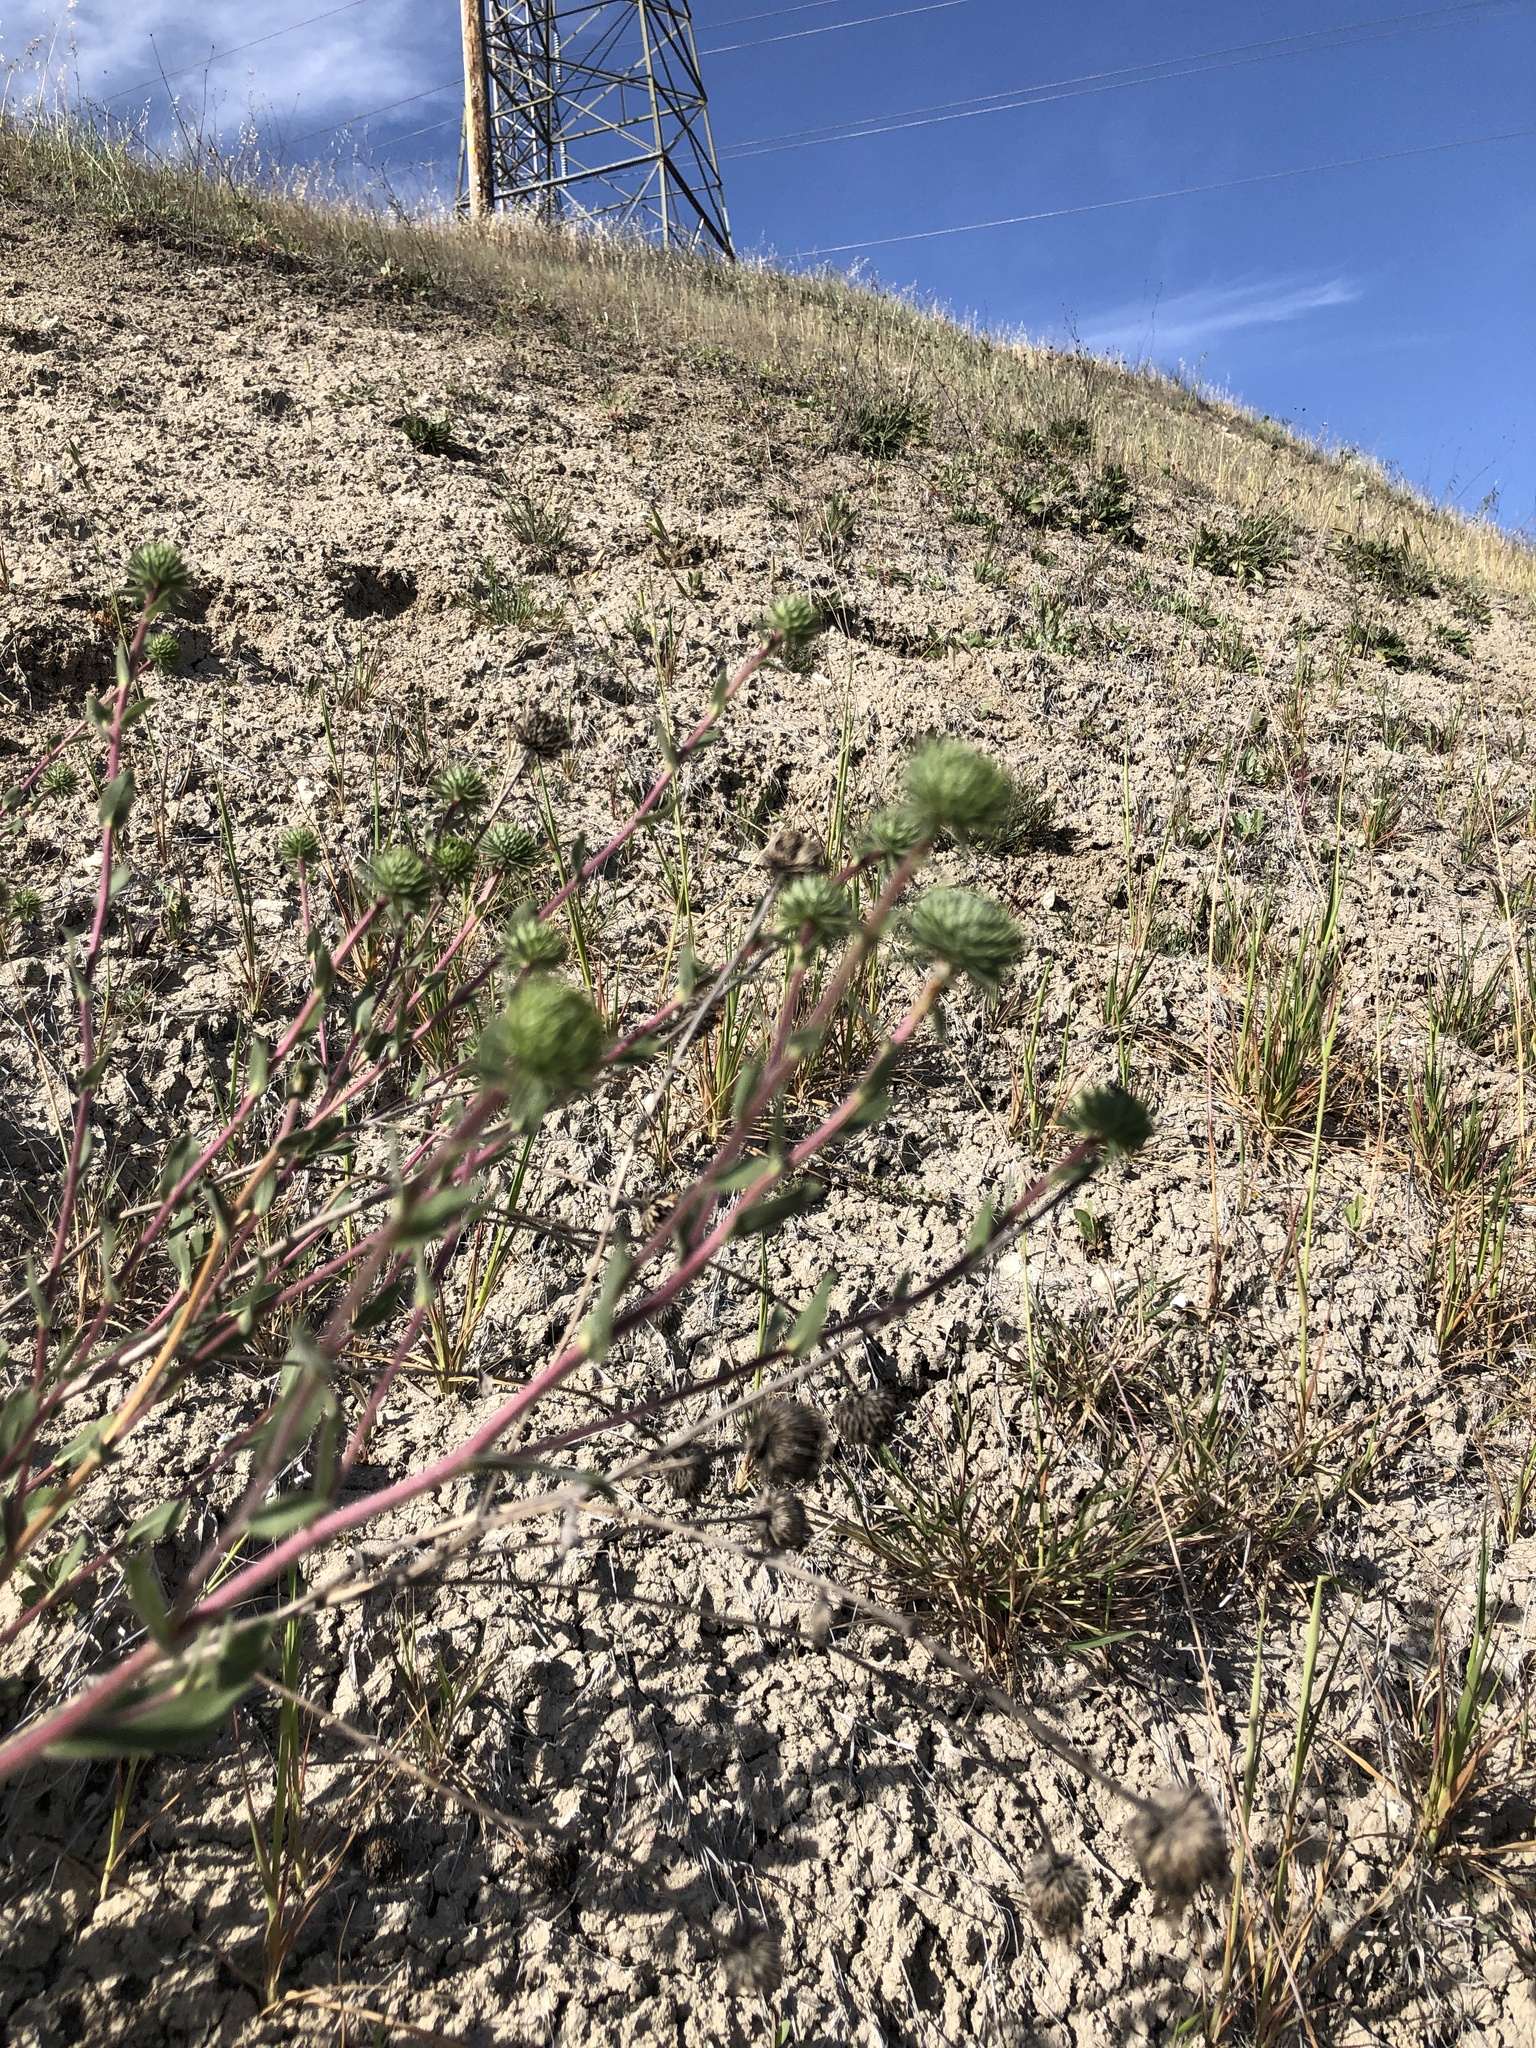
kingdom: Plantae
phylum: Tracheophyta
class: Magnoliopsida
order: Asterales
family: Asteraceae
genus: Grindelia
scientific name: Grindelia hirsutula
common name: Hairy gumweed
